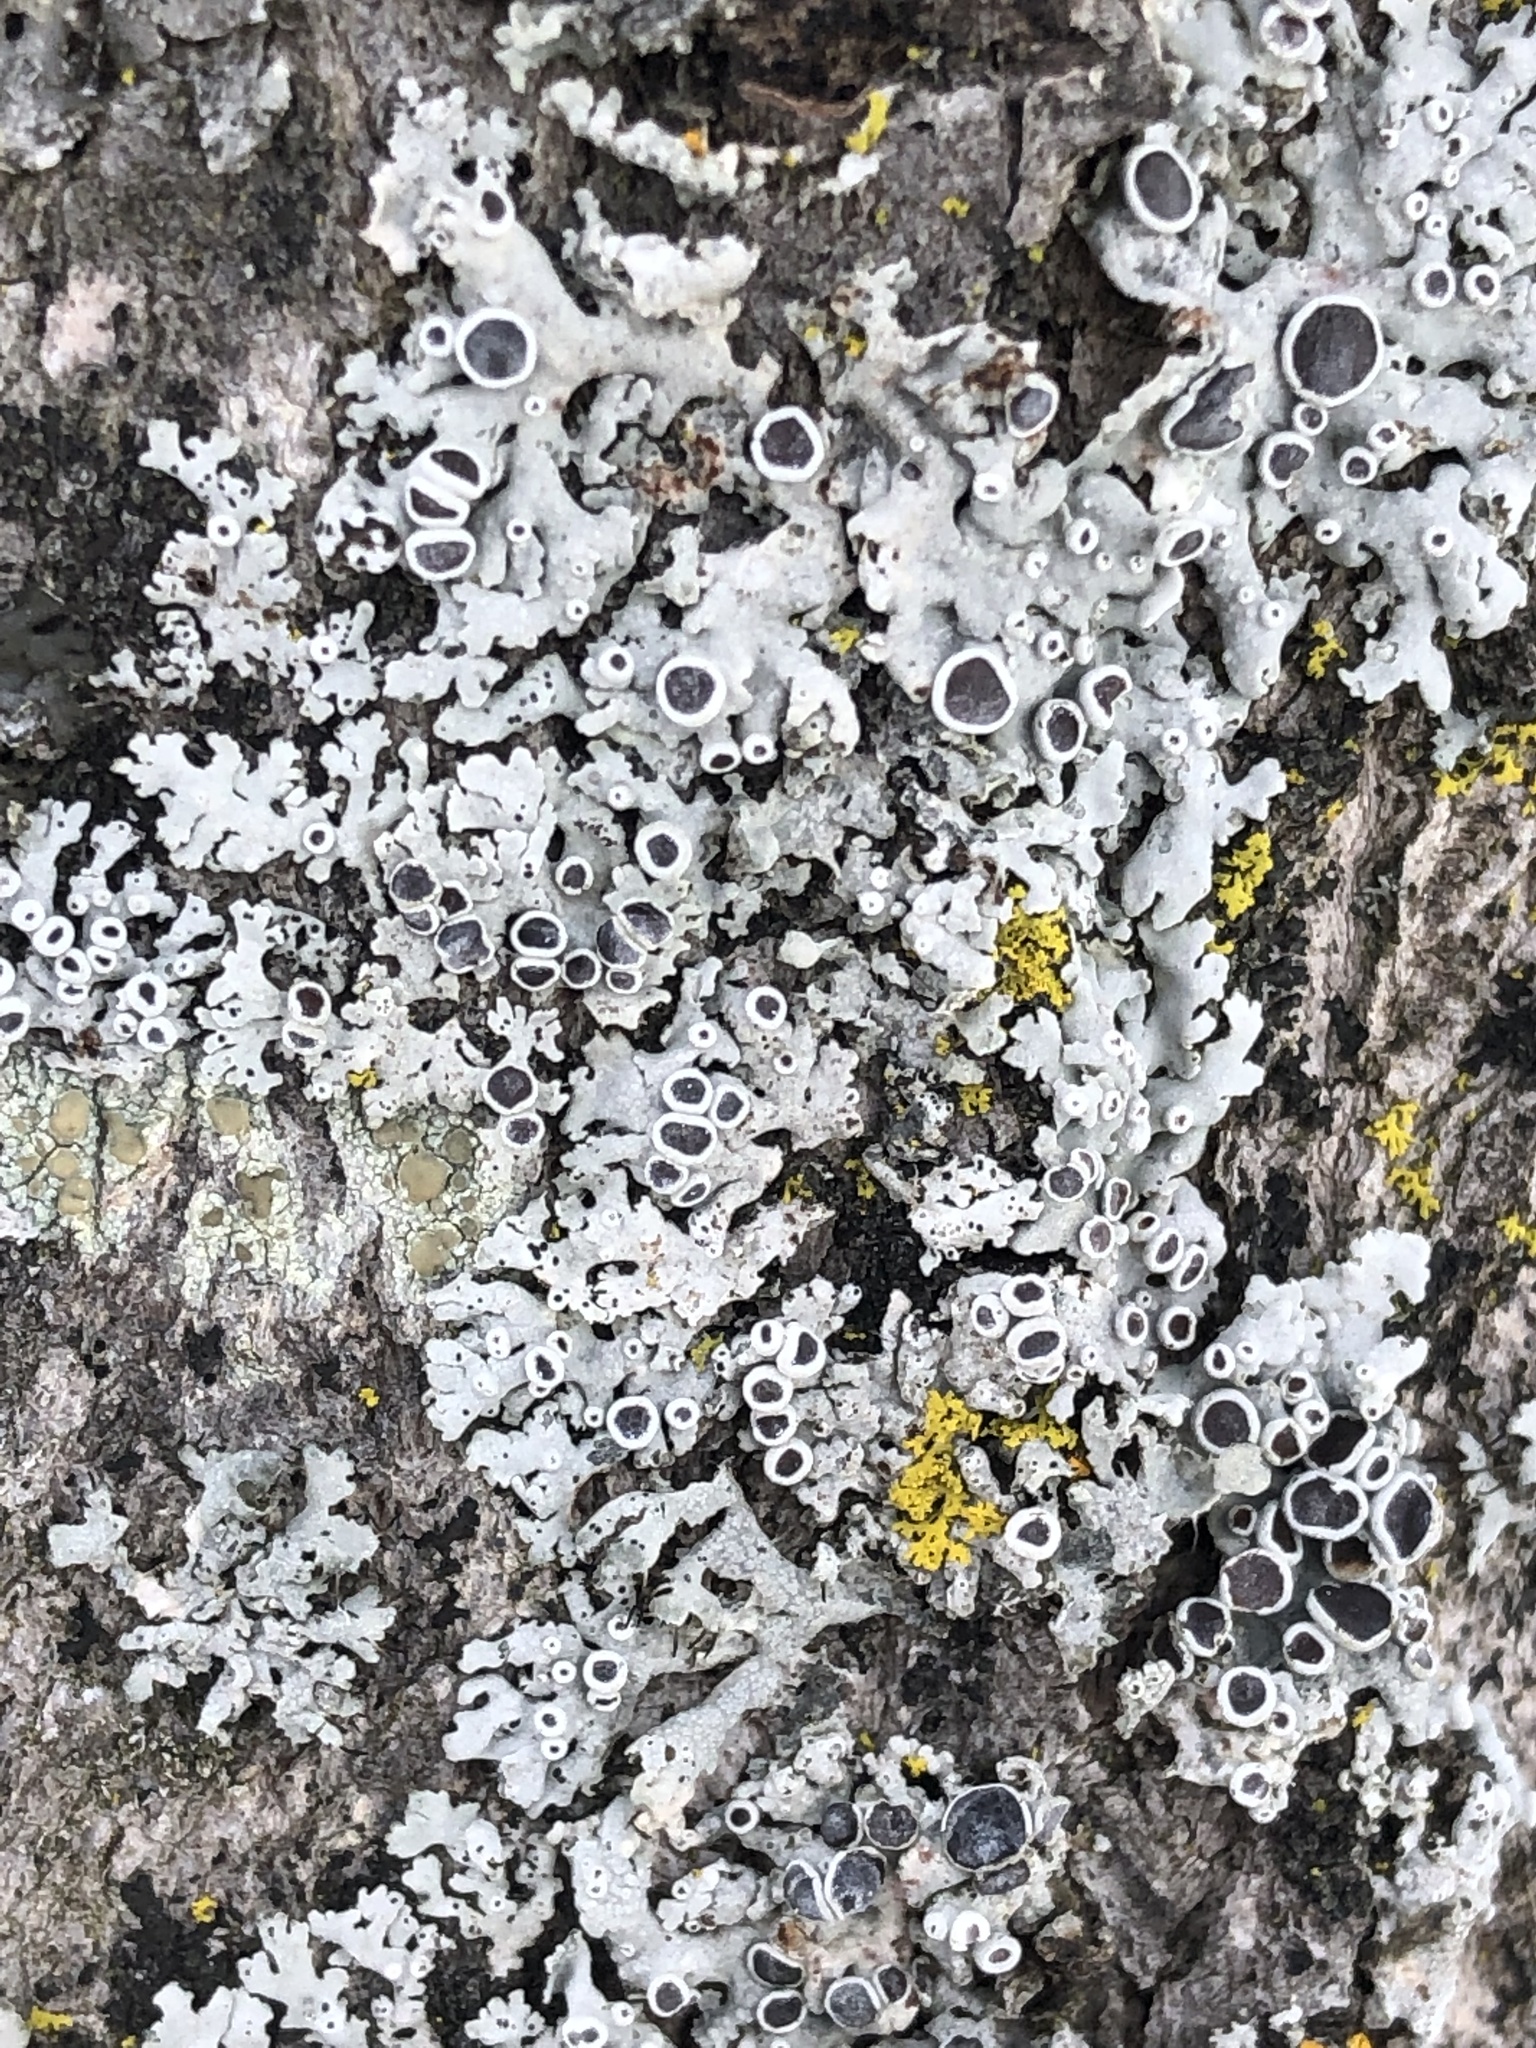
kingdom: Fungi
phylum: Ascomycota
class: Lecanoromycetes
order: Caliciales
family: Physciaceae
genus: Physcia
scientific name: Physcia stellaris
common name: Star rosette lichen
